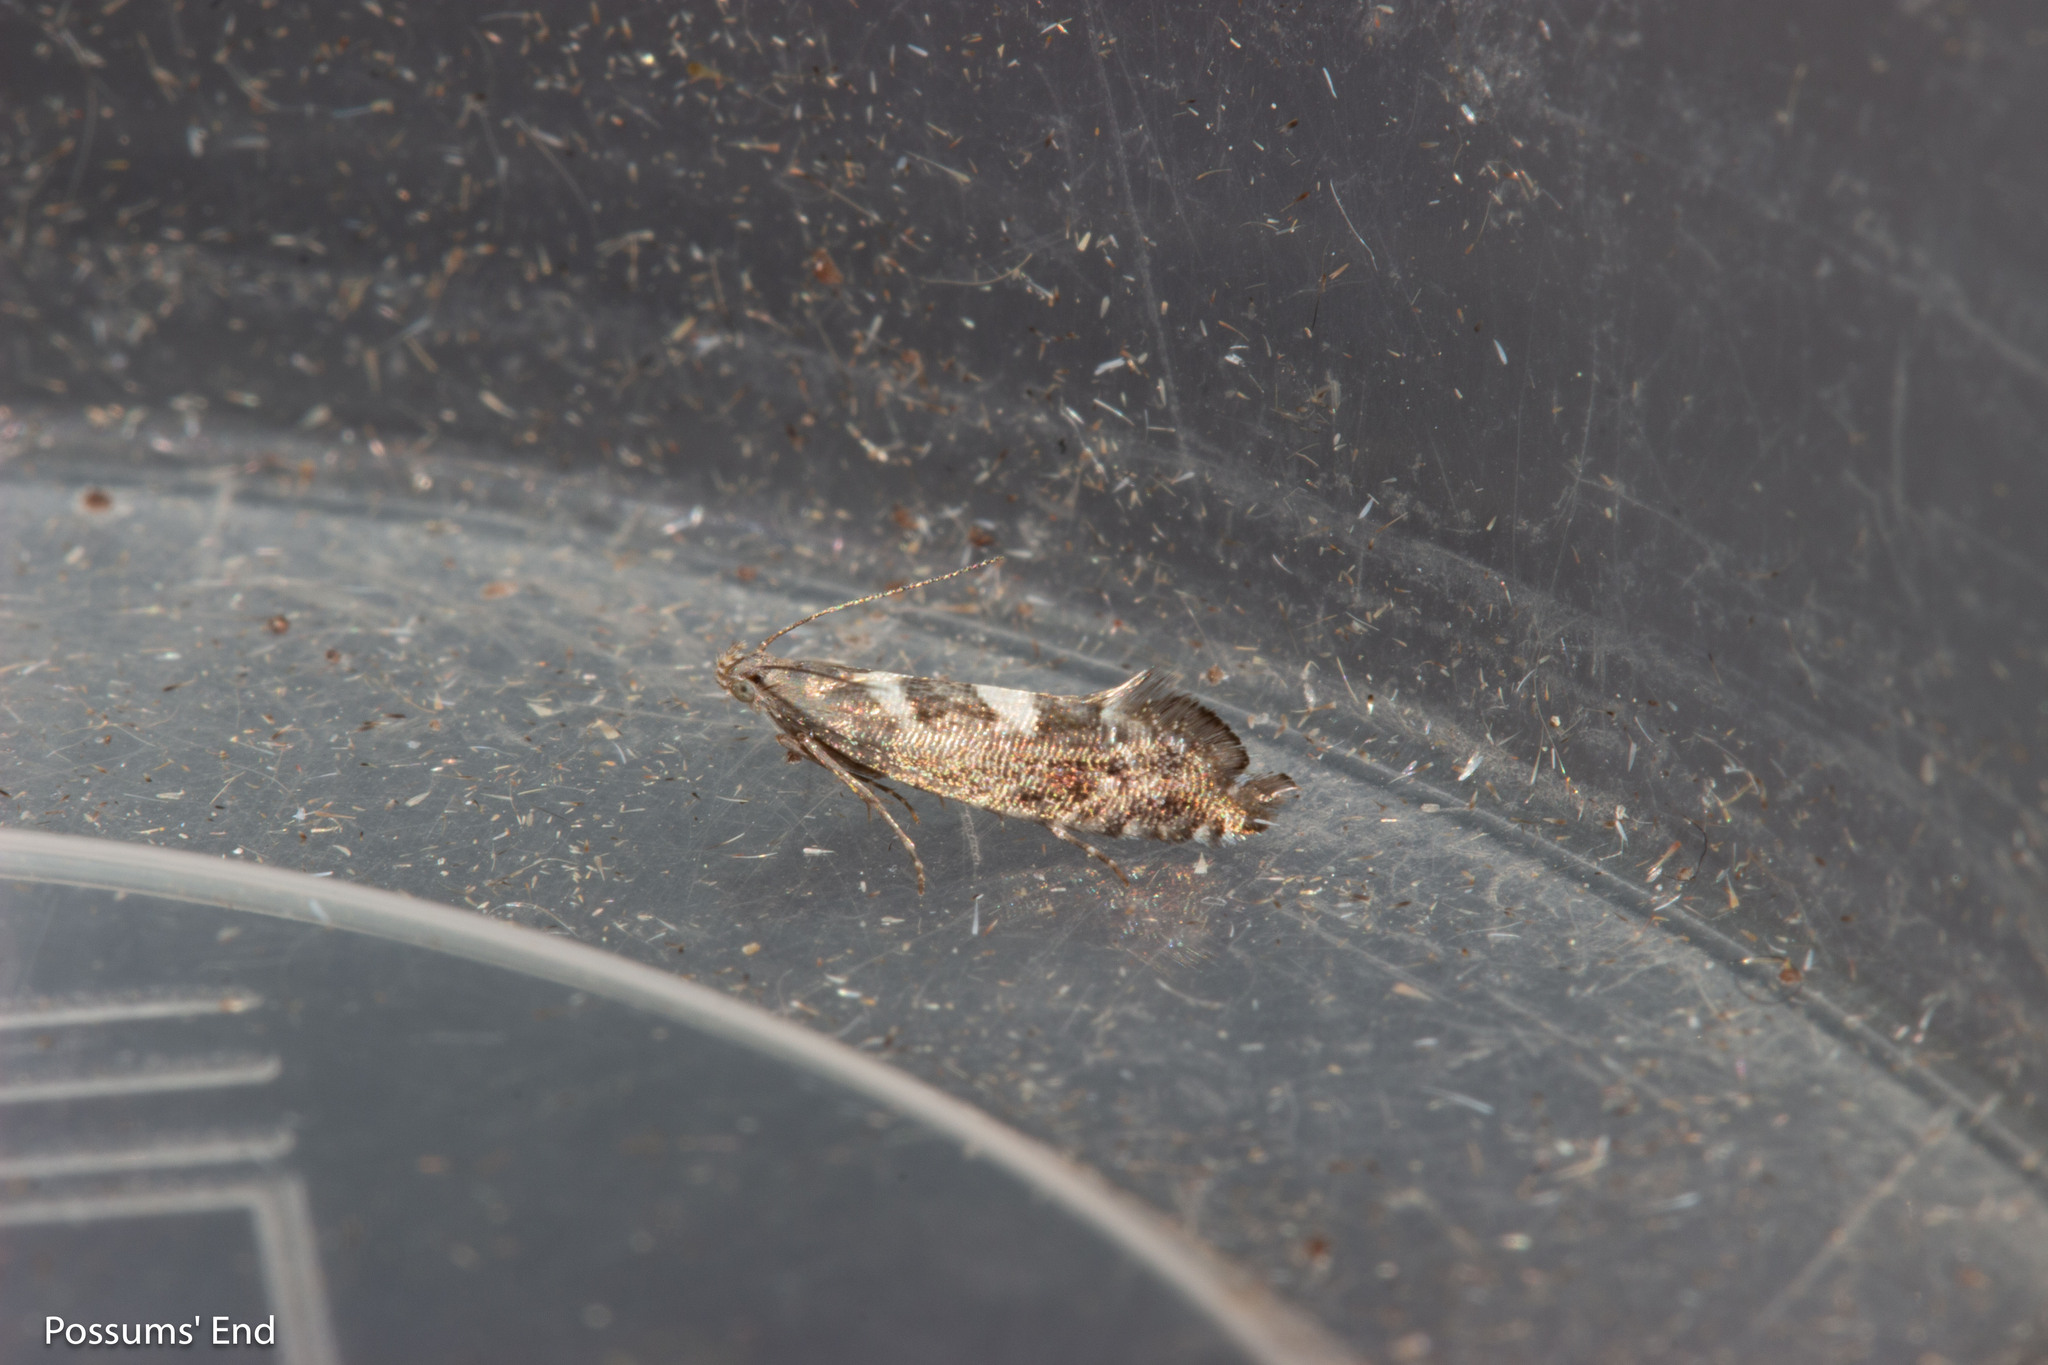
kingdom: Animalia
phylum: Arthropoda
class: Insecta
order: Lepidoptera
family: Glyphipterigidae
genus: Glyphipterix
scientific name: Glyphipterix asteronota
